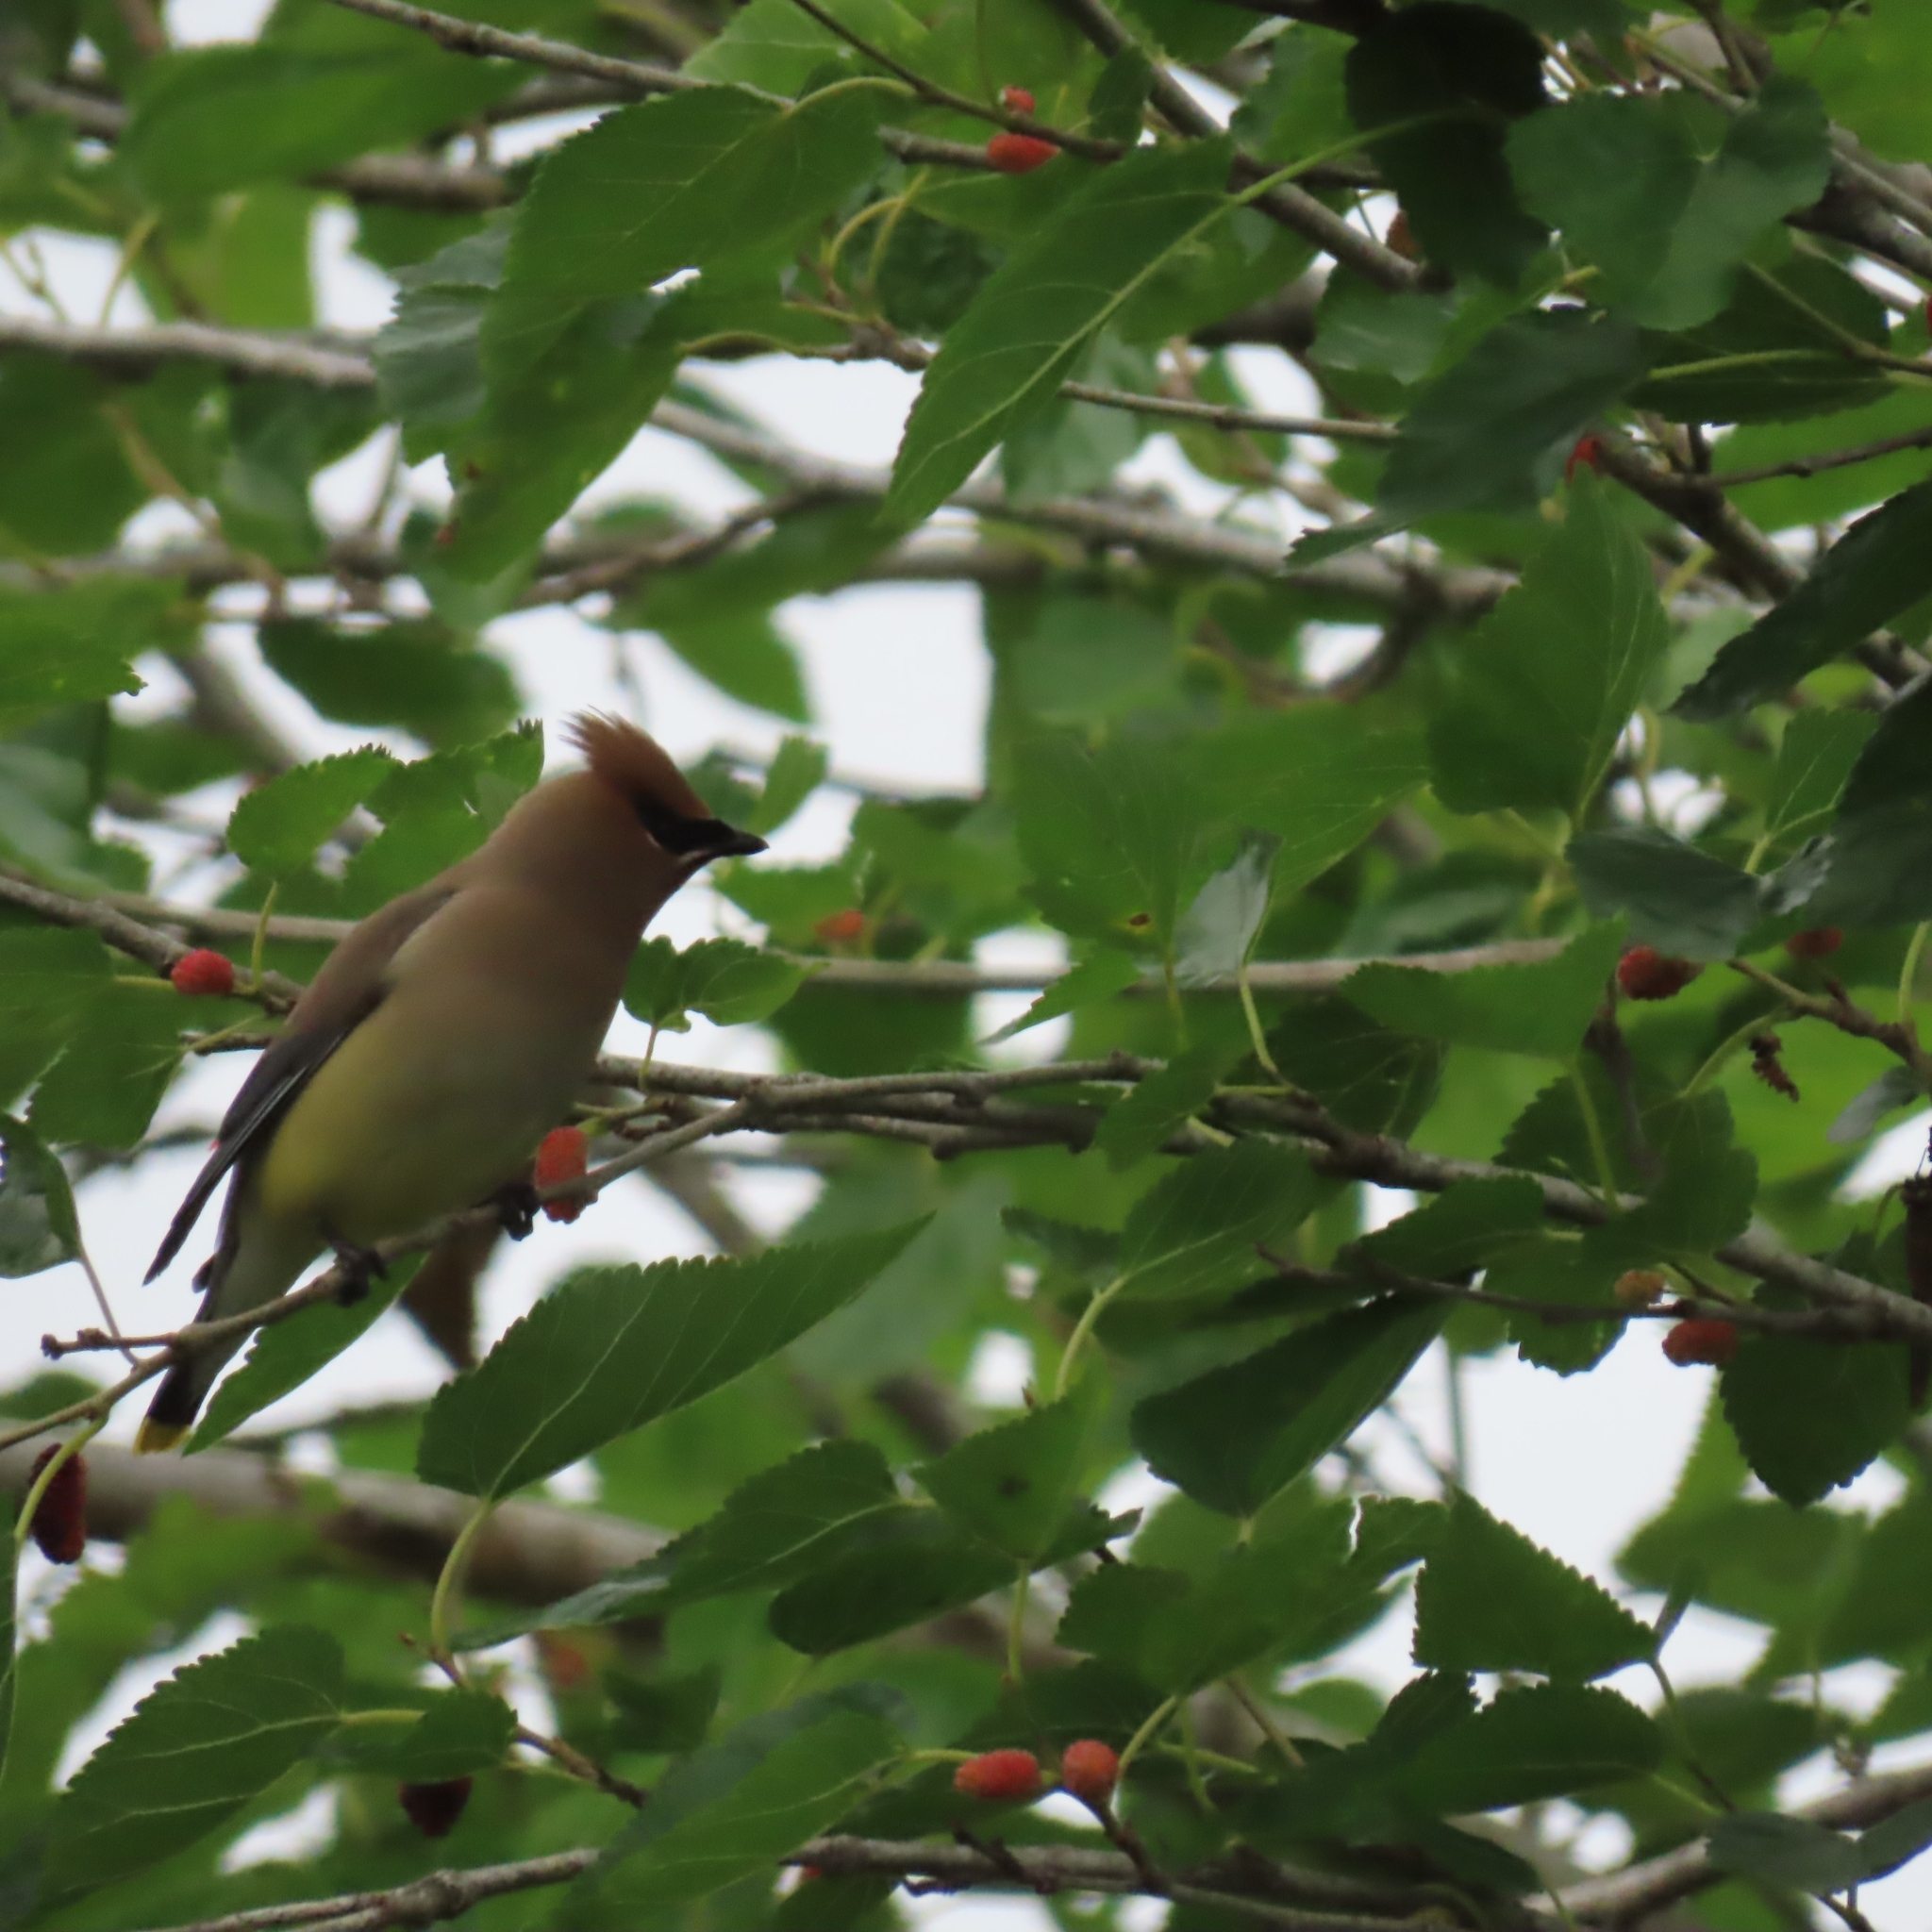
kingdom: Animalia
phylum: Chordata
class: Aves
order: Passeriformes
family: Bombycillidae
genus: Bombycilla
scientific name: Bombycilla cedrorum
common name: Cedar waxwing
